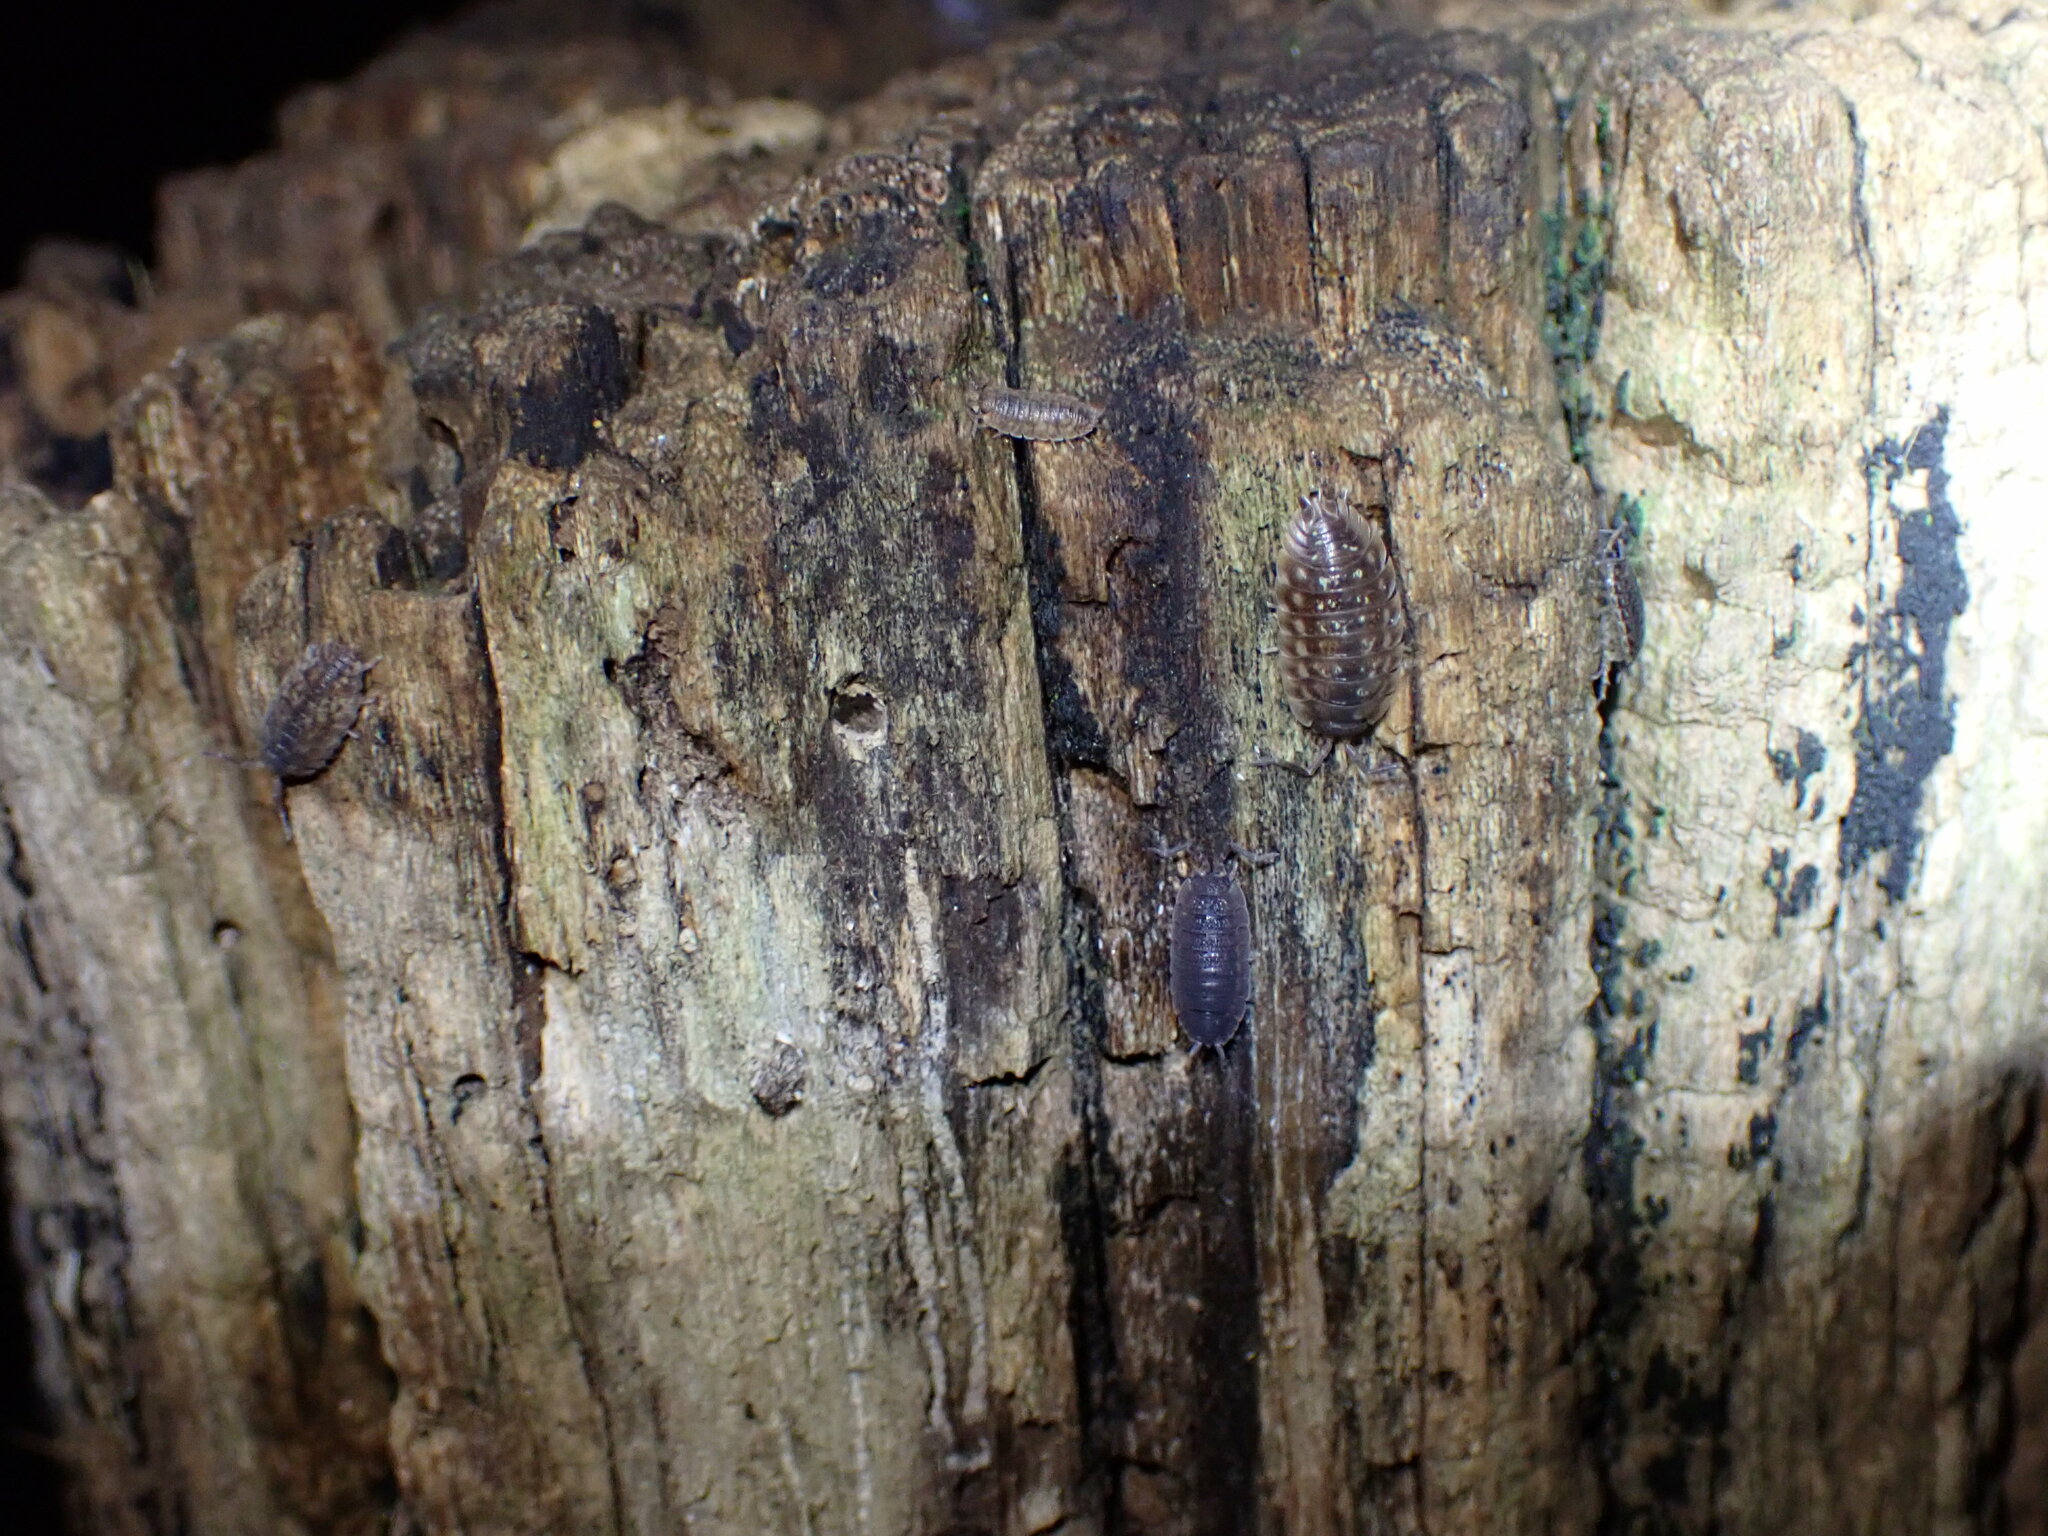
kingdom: Animalia
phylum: Arthropoda
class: Malacostraca
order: Isopoda
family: Oniscidae
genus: Oniscus
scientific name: Oniscus asellus
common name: Common shiny woodlouse
